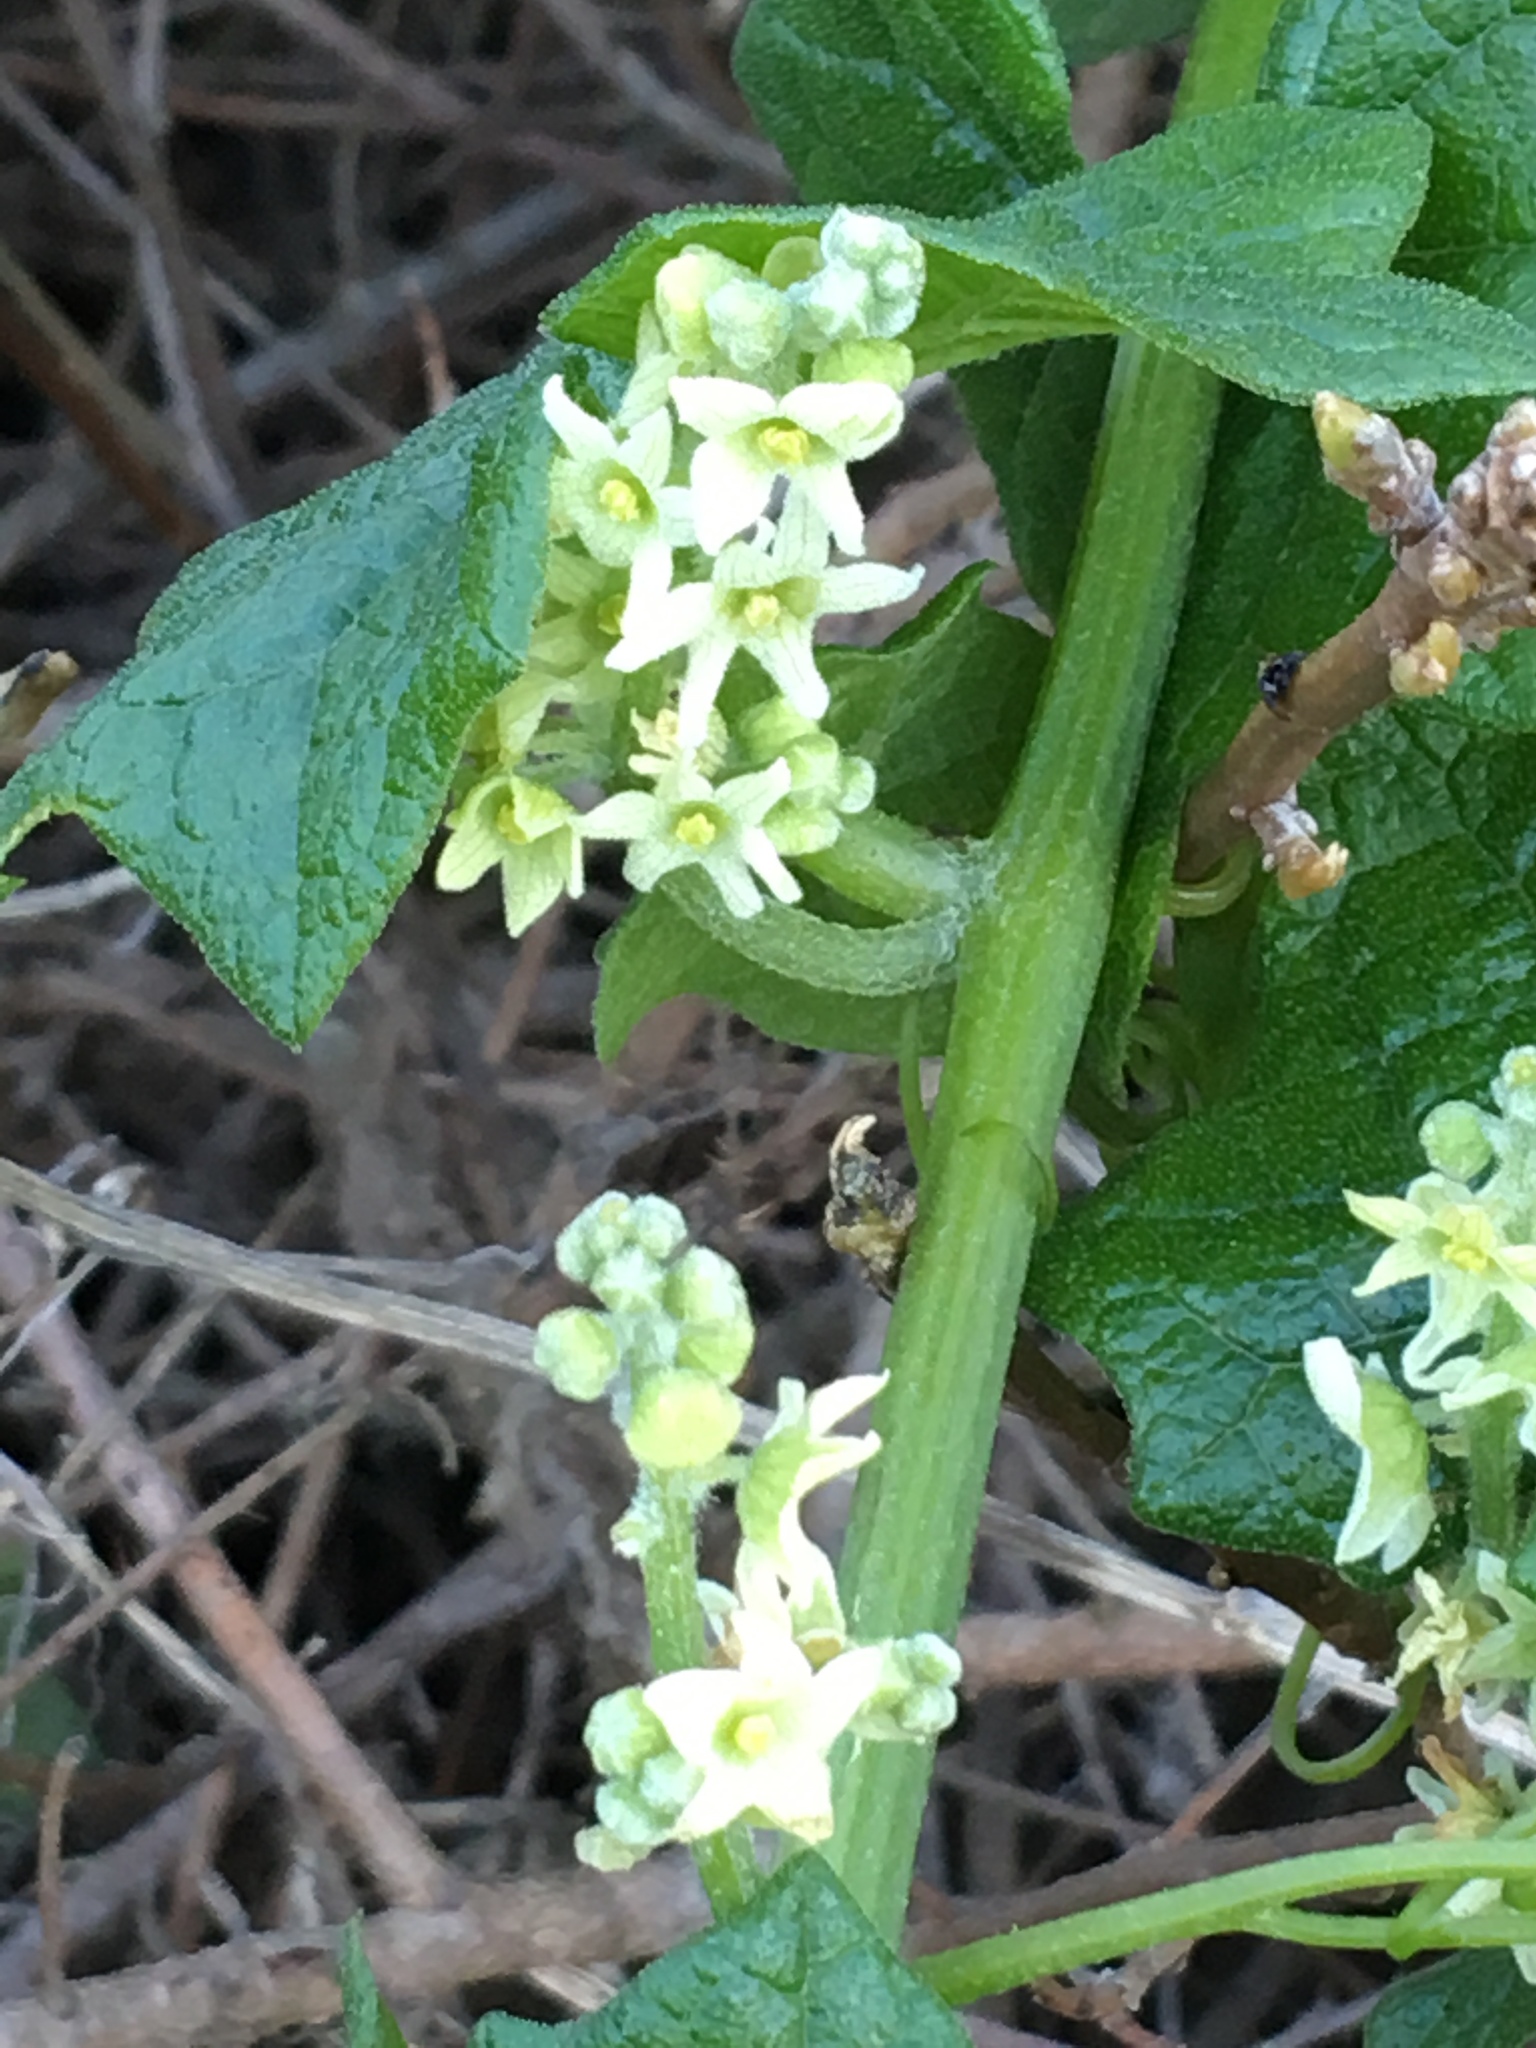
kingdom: Plantae
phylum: Tracheophyta
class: Magnoliopsida
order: Cucurbitales
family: Cucurbitaceae
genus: Marah
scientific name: Marah fabacea
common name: California manroot
